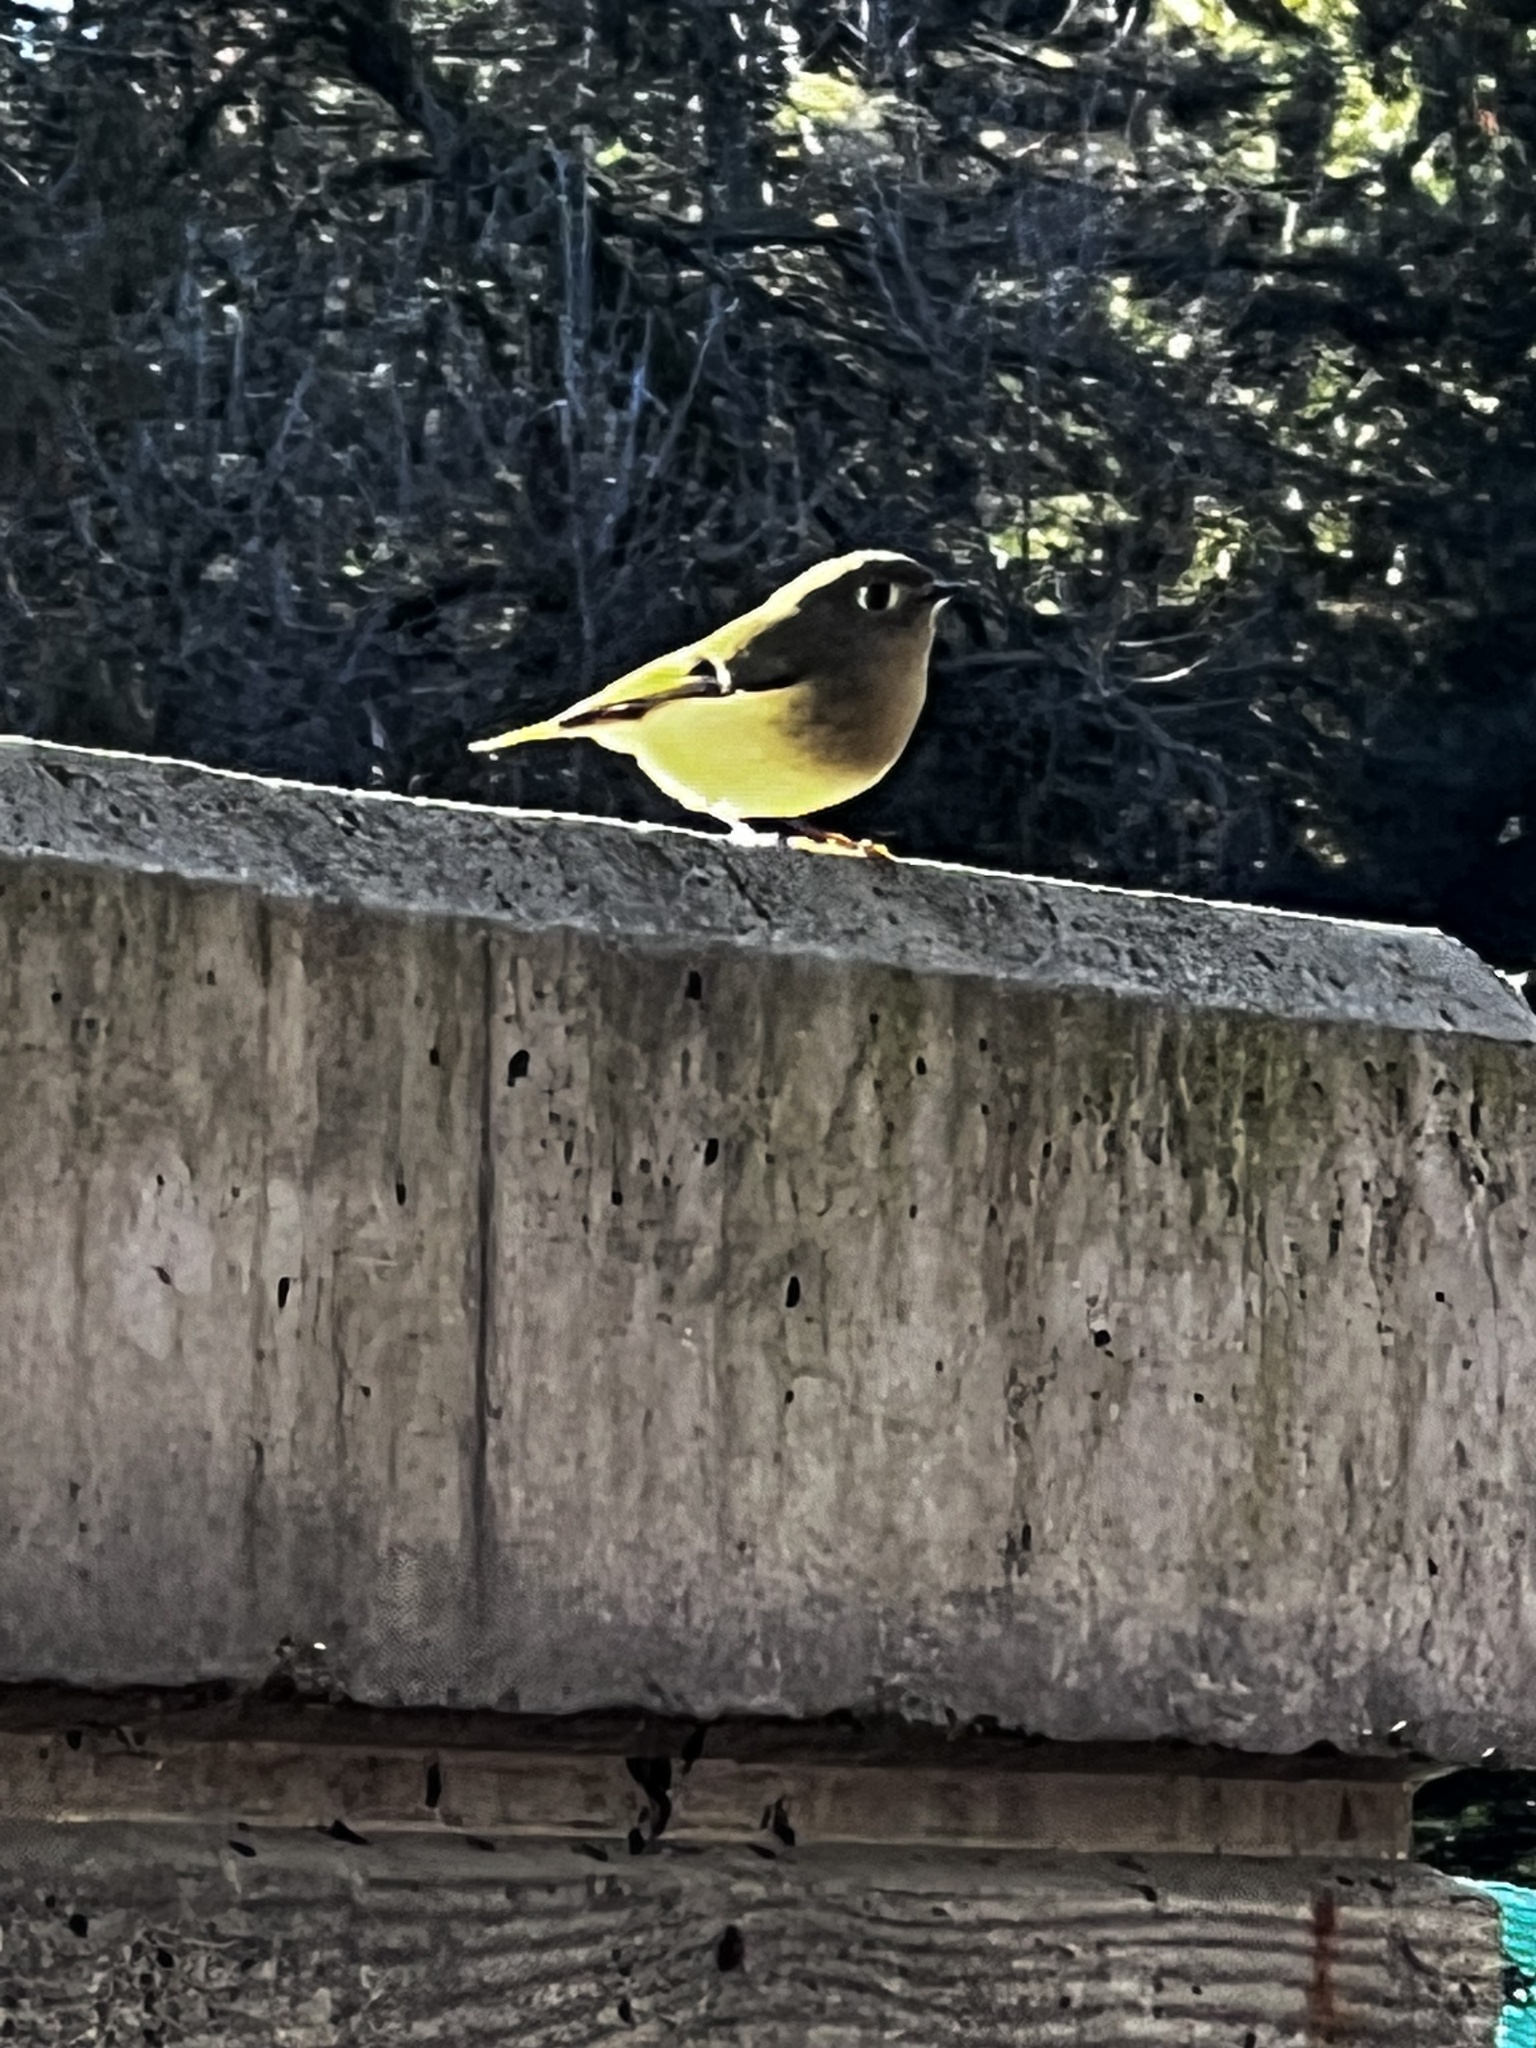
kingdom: Animalia
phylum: Chordata
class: Aves
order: Passeriformes
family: Regulidae
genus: Regulus
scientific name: Regulus calendula
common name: Ruby-crowned kinglet
